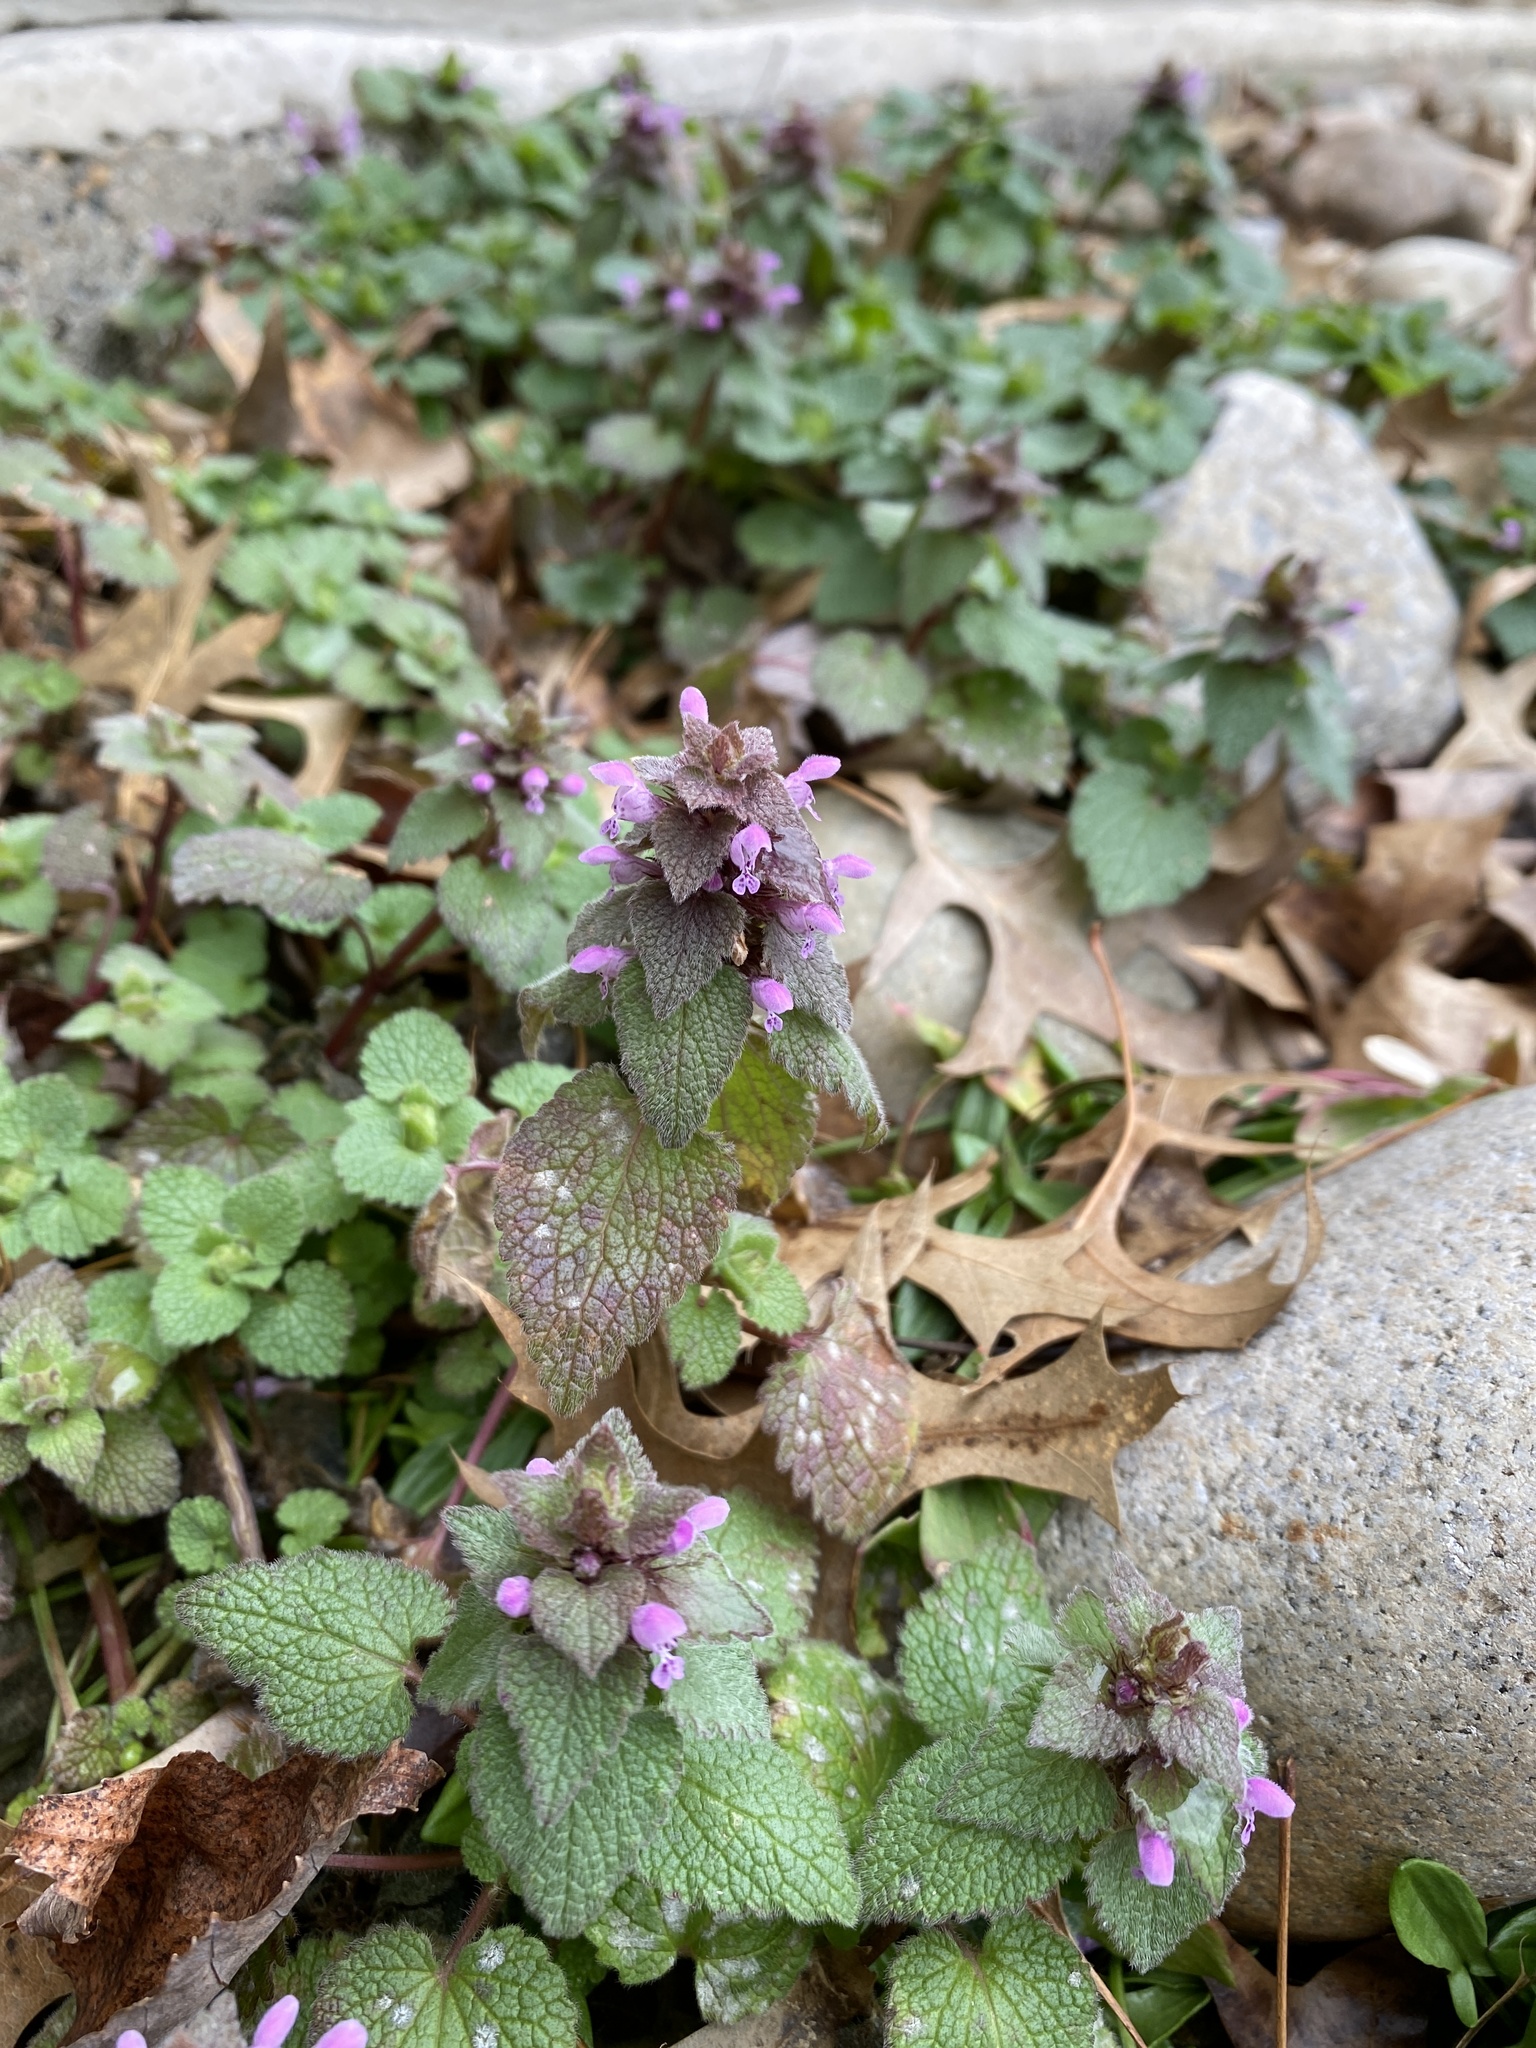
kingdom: Plantae
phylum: Tracheophyta
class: Magnoliopsida
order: Lamiales
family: Lamiaceae
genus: Lamium
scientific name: Lamium purpureum
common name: Red dead-nettle
